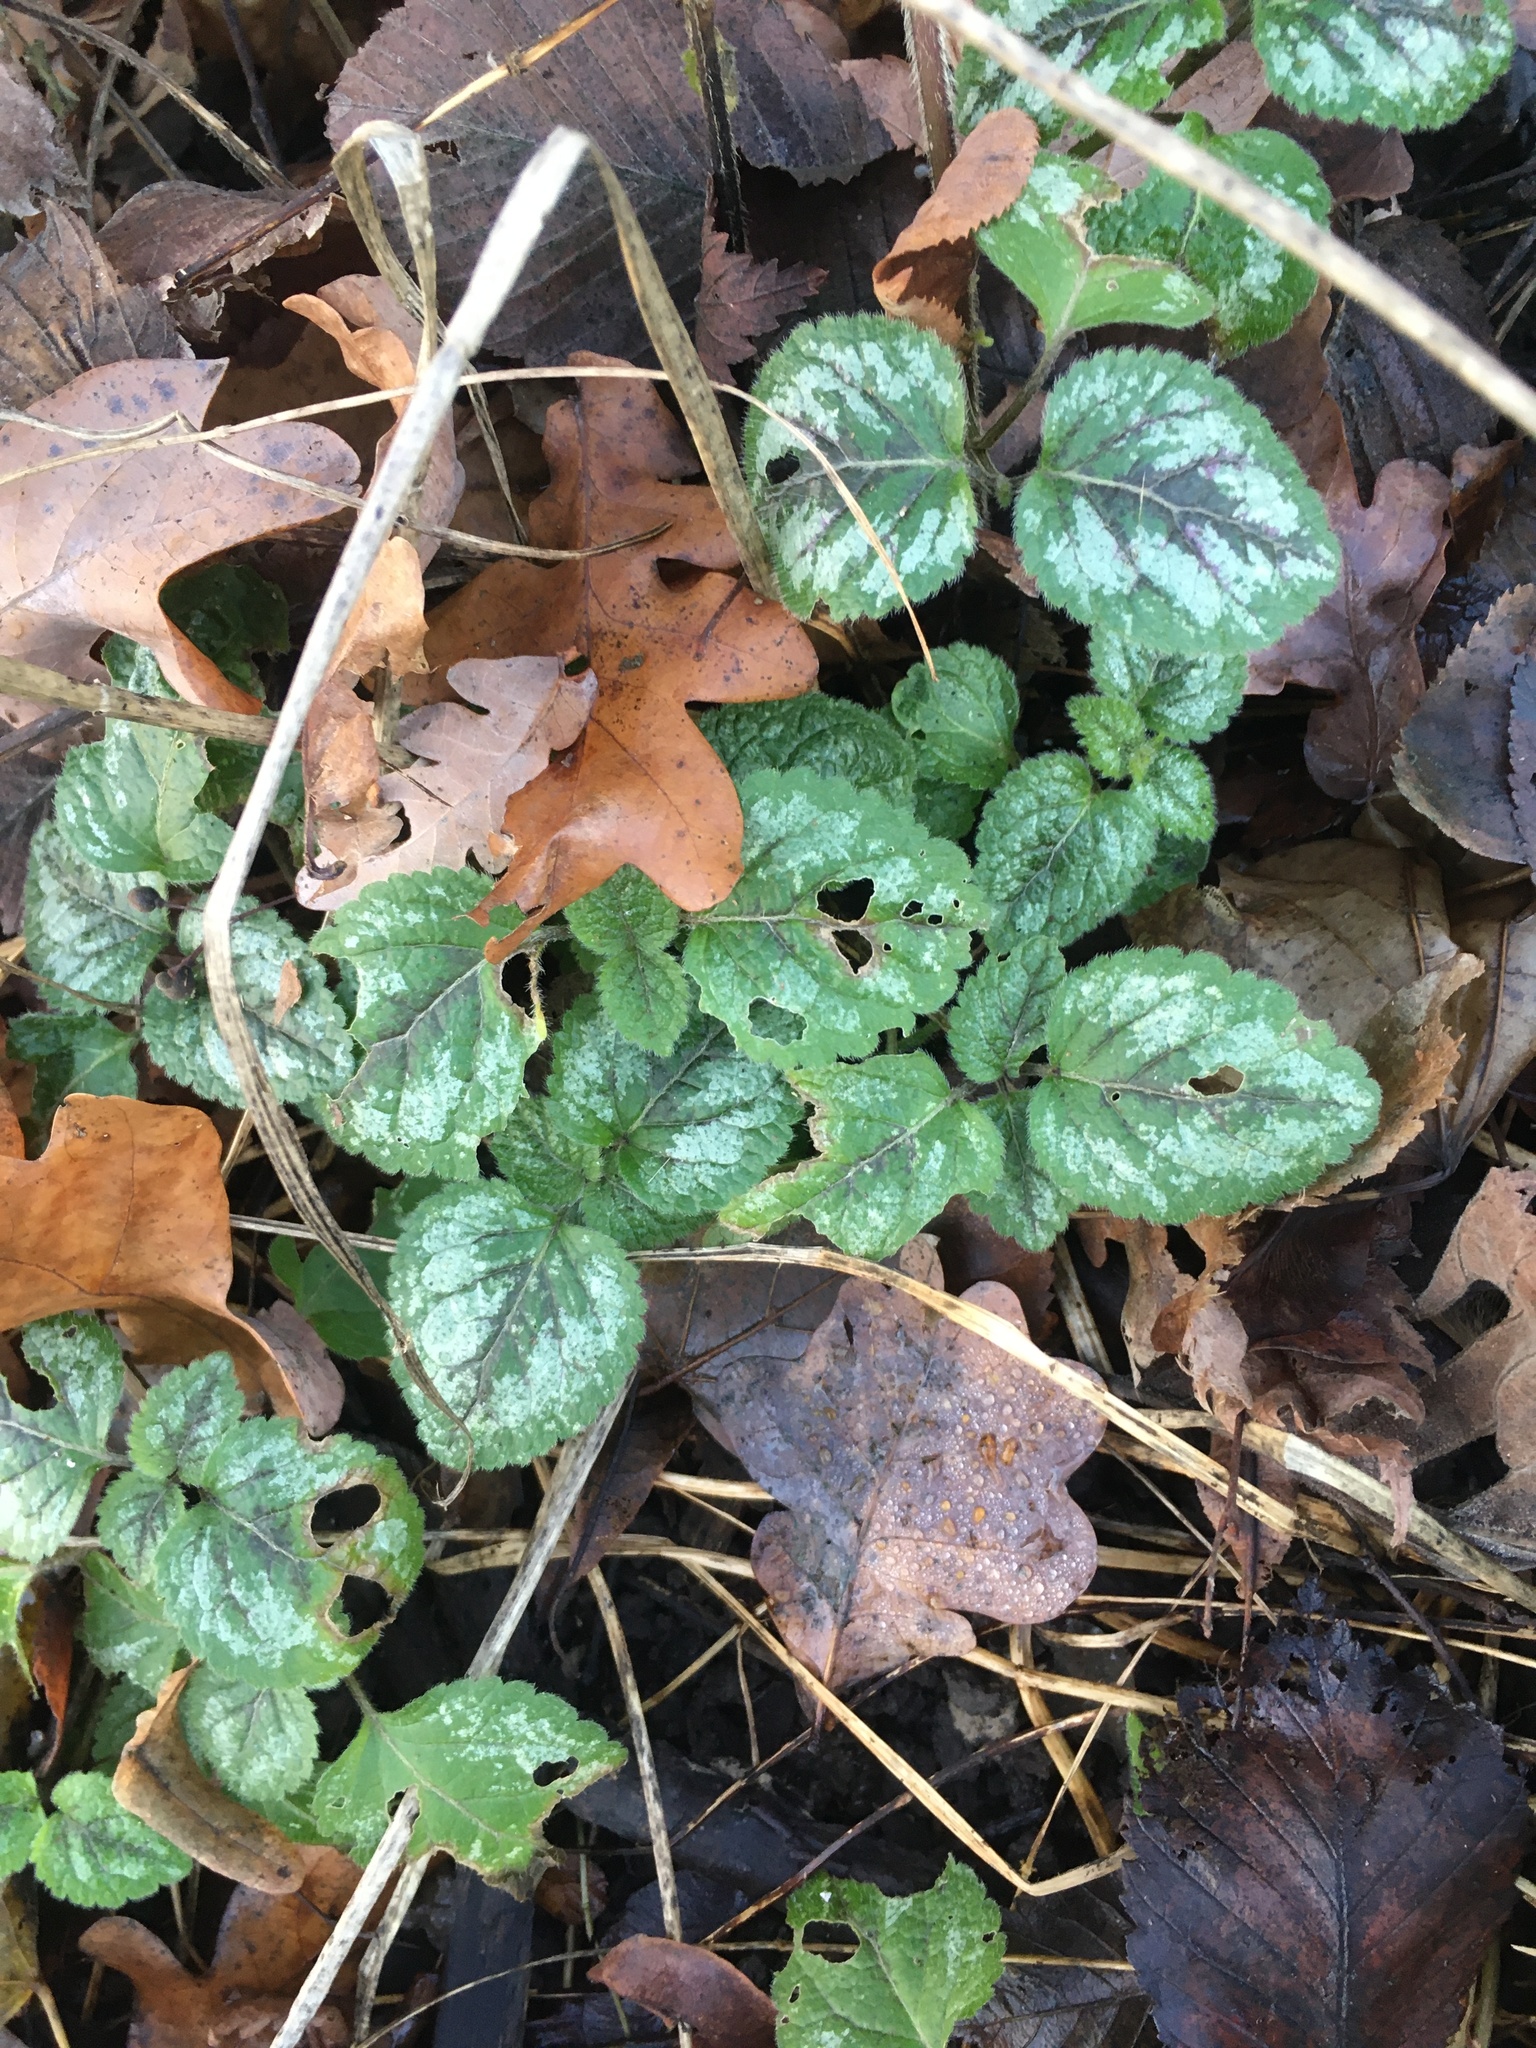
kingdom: Plantae
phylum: Tracheophyta
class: Magnoliopsida
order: Lamiales
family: Lamiaceae
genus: Lamium
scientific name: Lamium galeobdolon
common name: Yellow archangel
